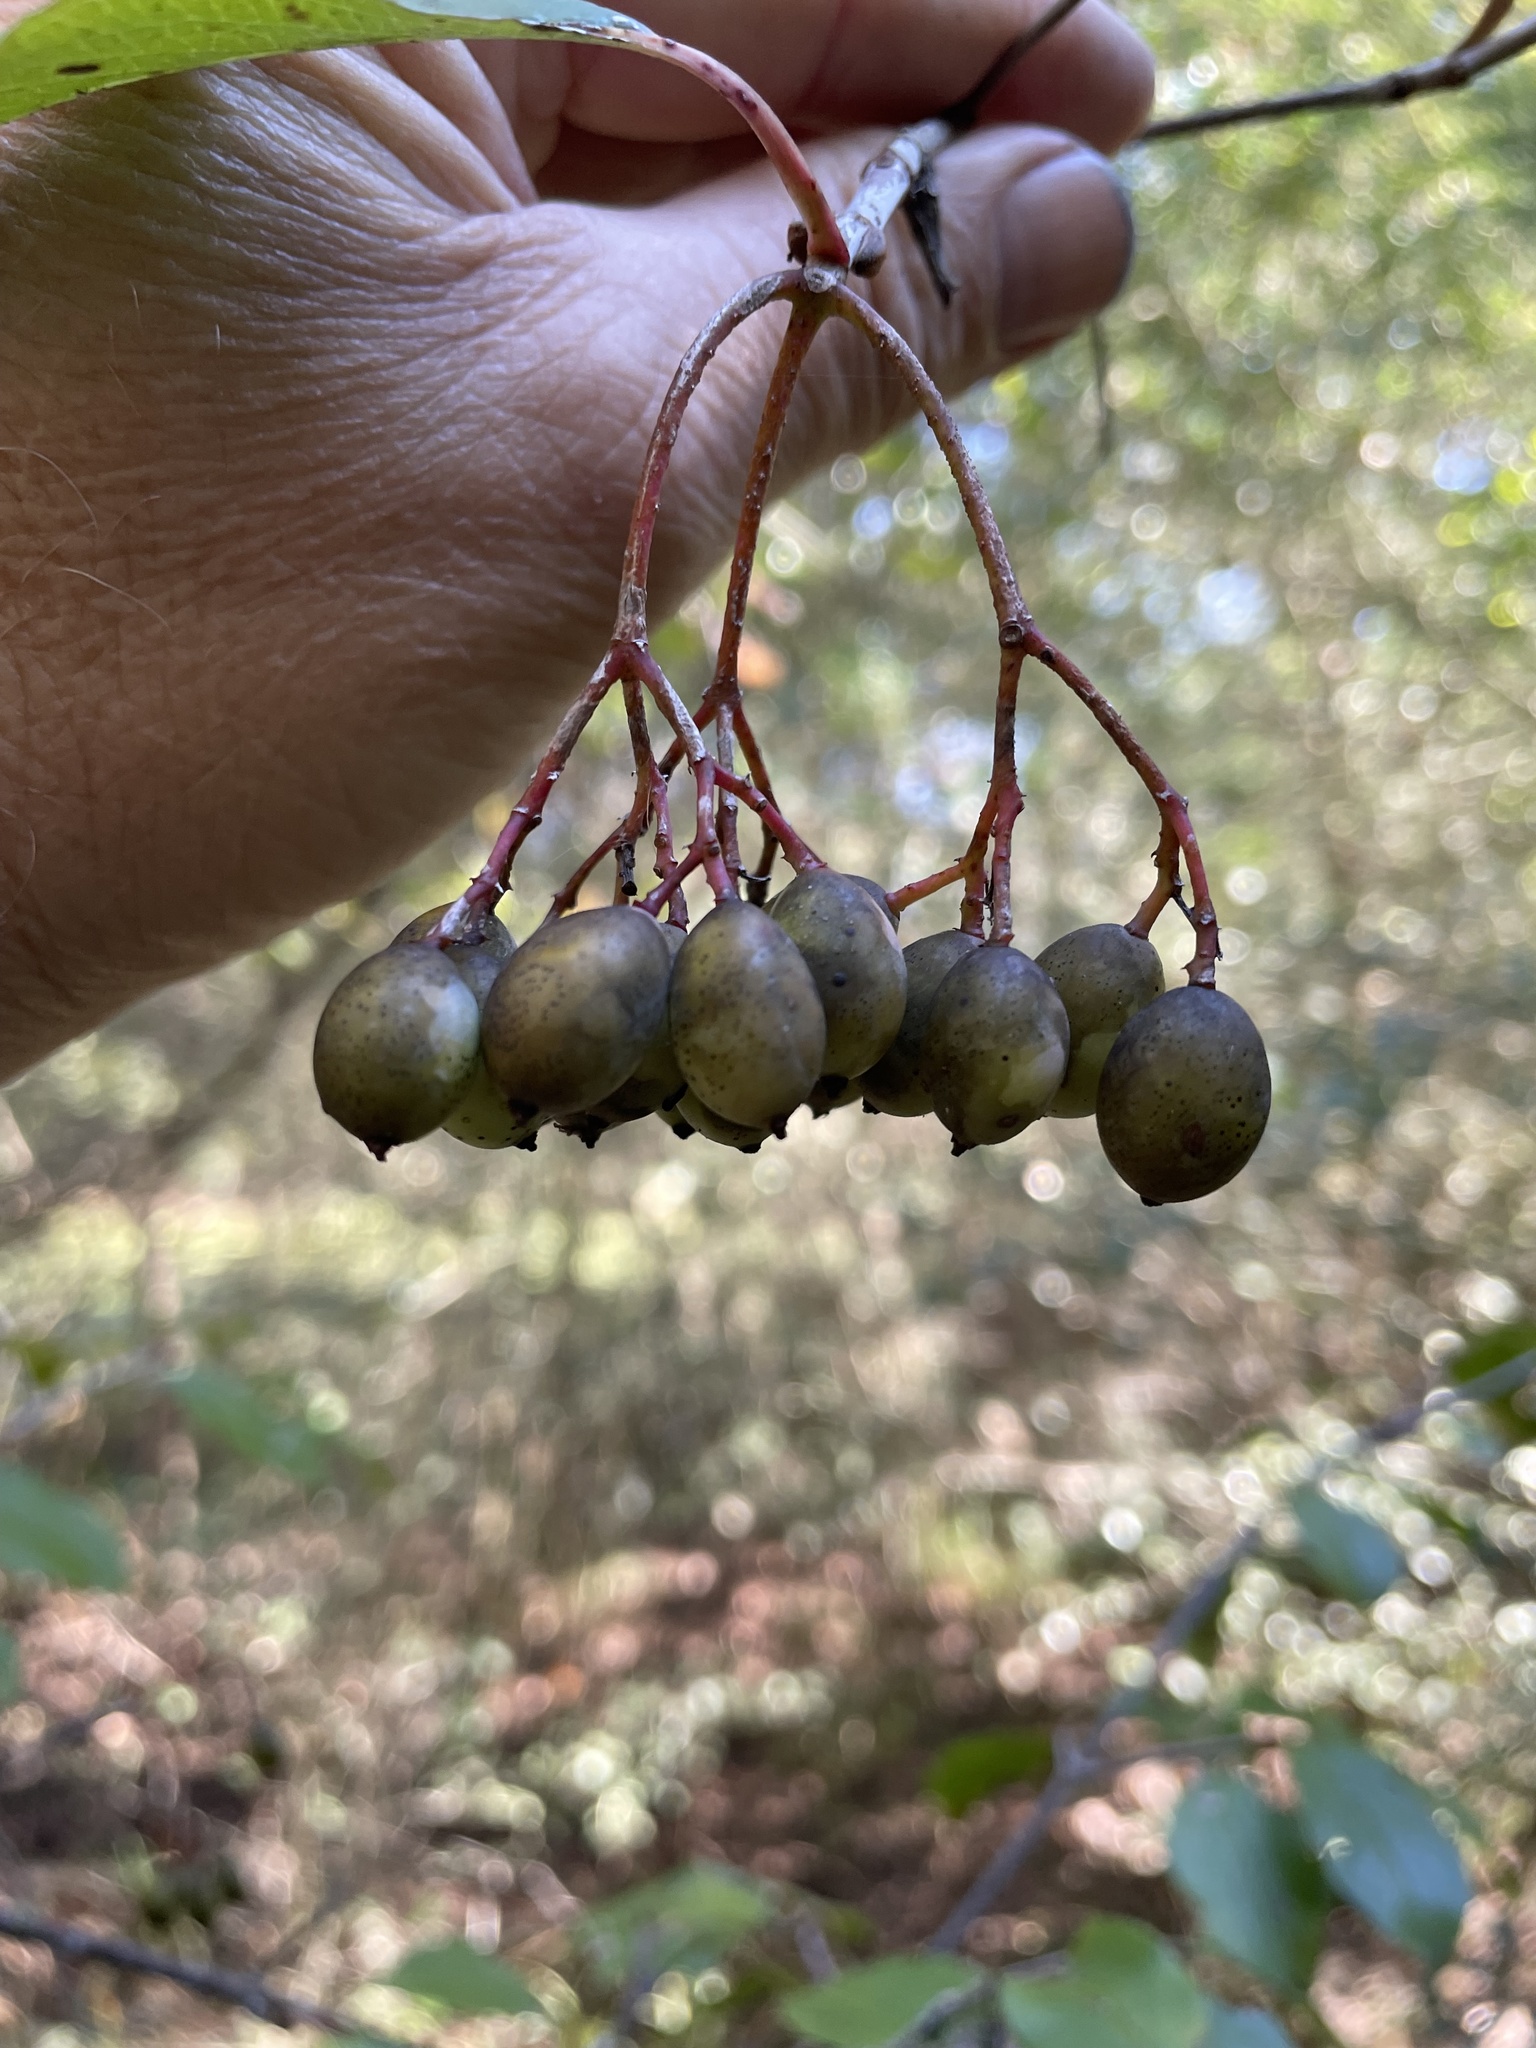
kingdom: Plantae
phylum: Tracheophyta
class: Magnoliopsida
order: Dipsacales
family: Viburnaceae
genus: Viburnum
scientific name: Viburnum rufidulum
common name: Blue haw
